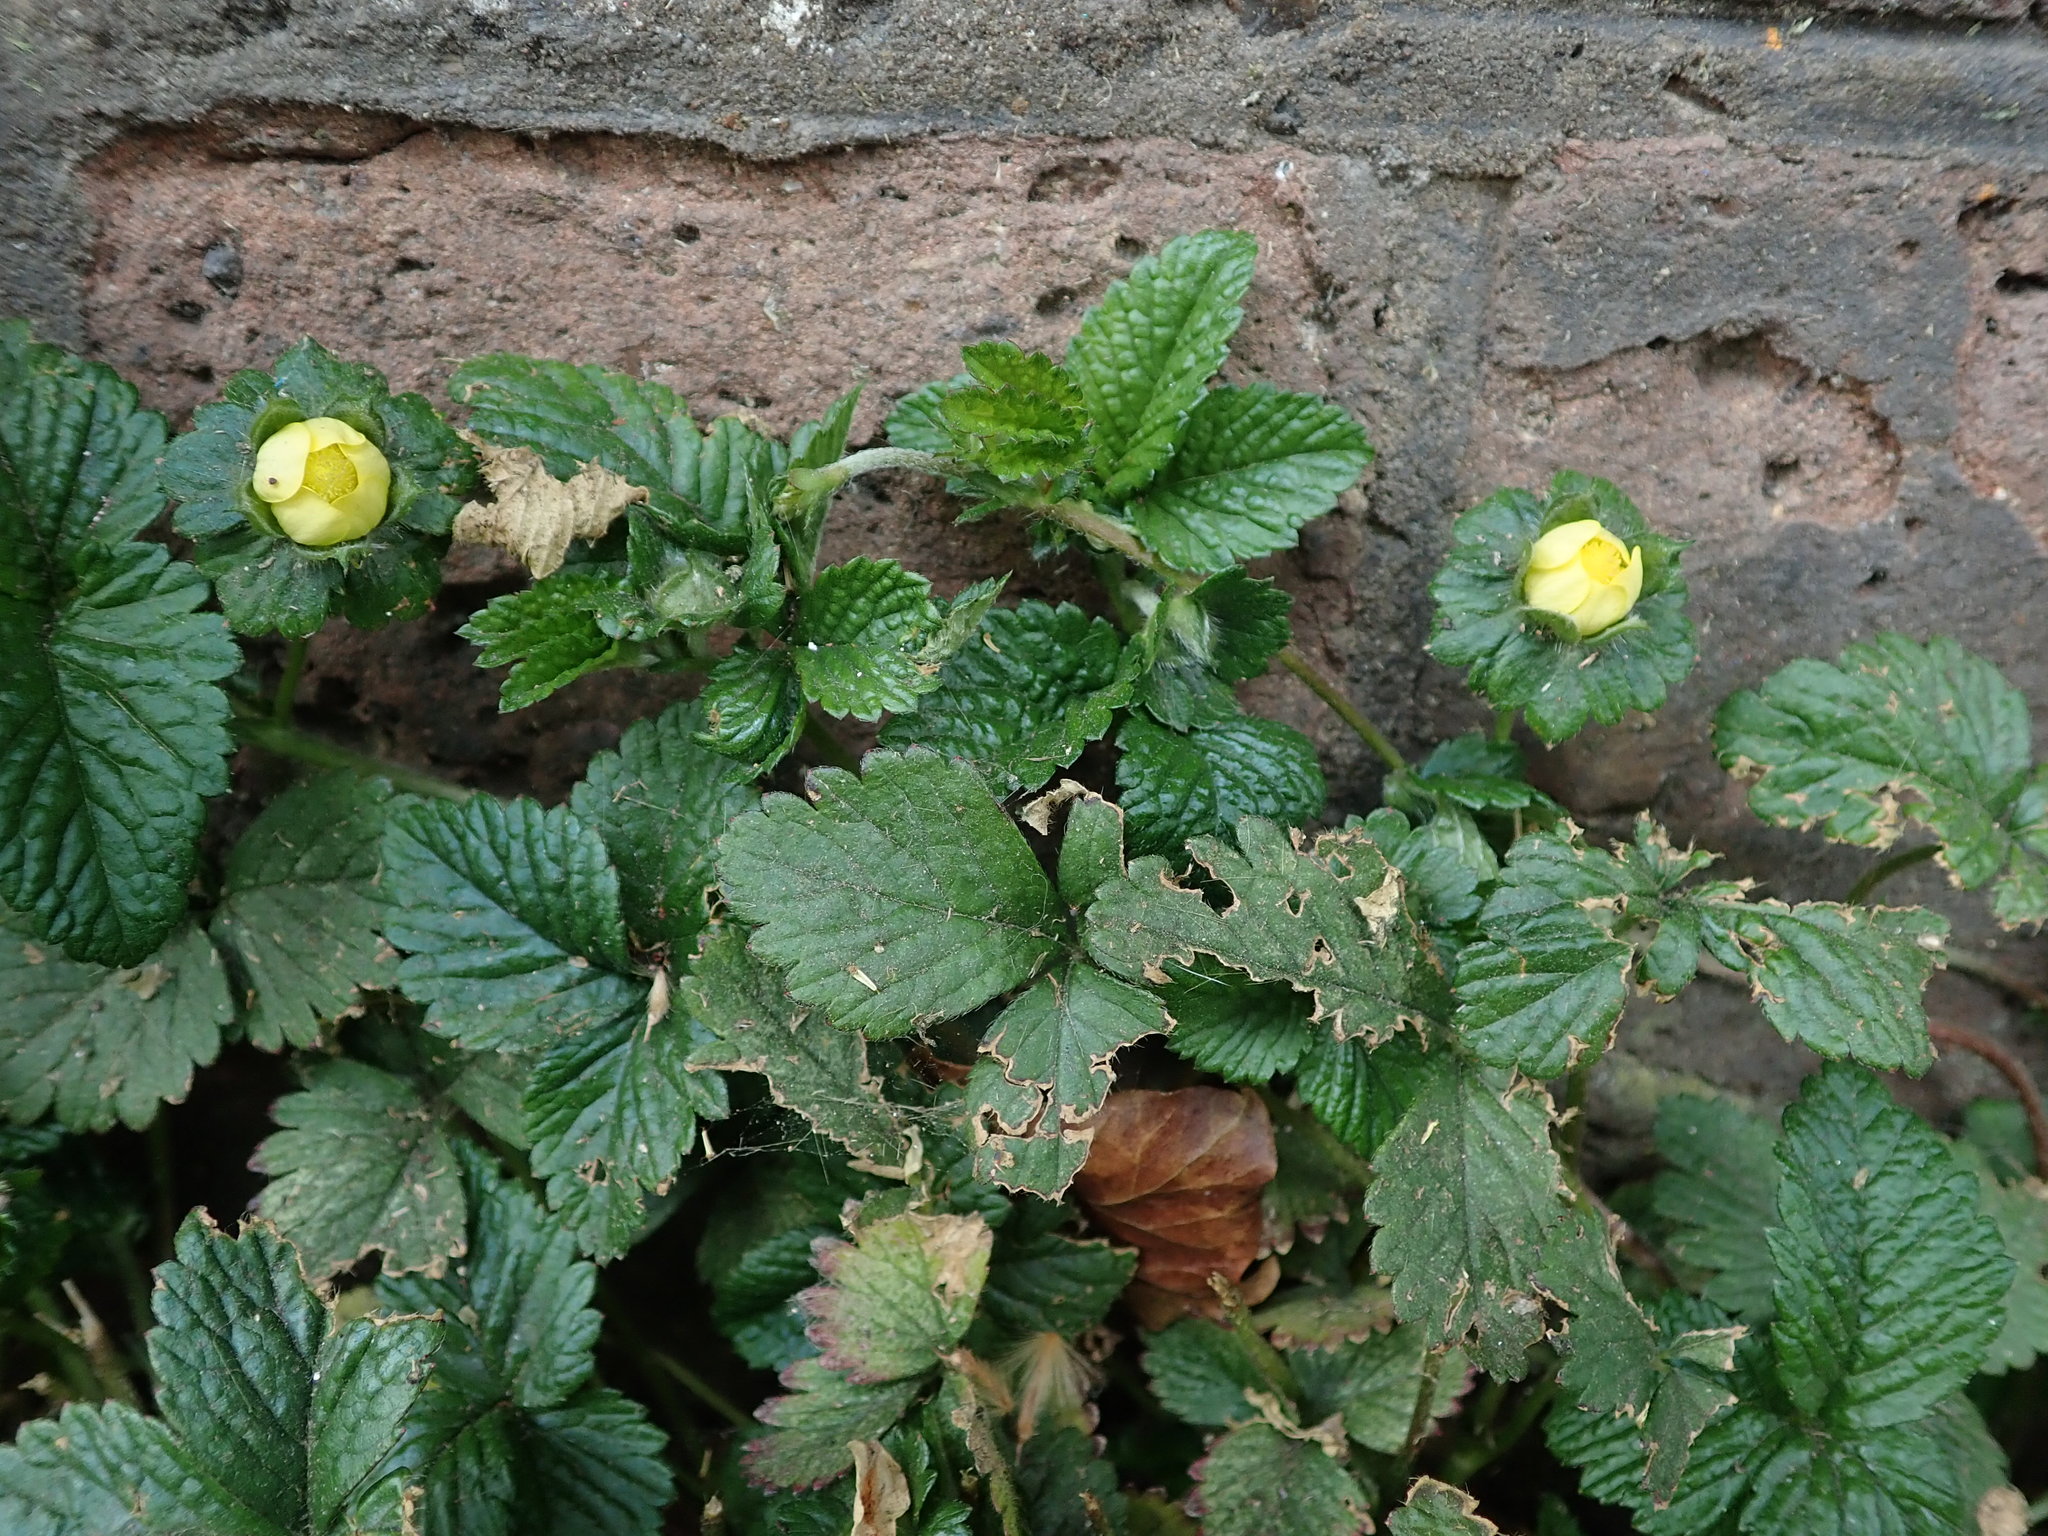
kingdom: Plantae
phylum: Tracheophyta
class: Magnoliopsida
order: Rosales
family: Rosaceae
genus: Potentilla
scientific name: Potentilla indica
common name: Yellow-flowered strawberry
